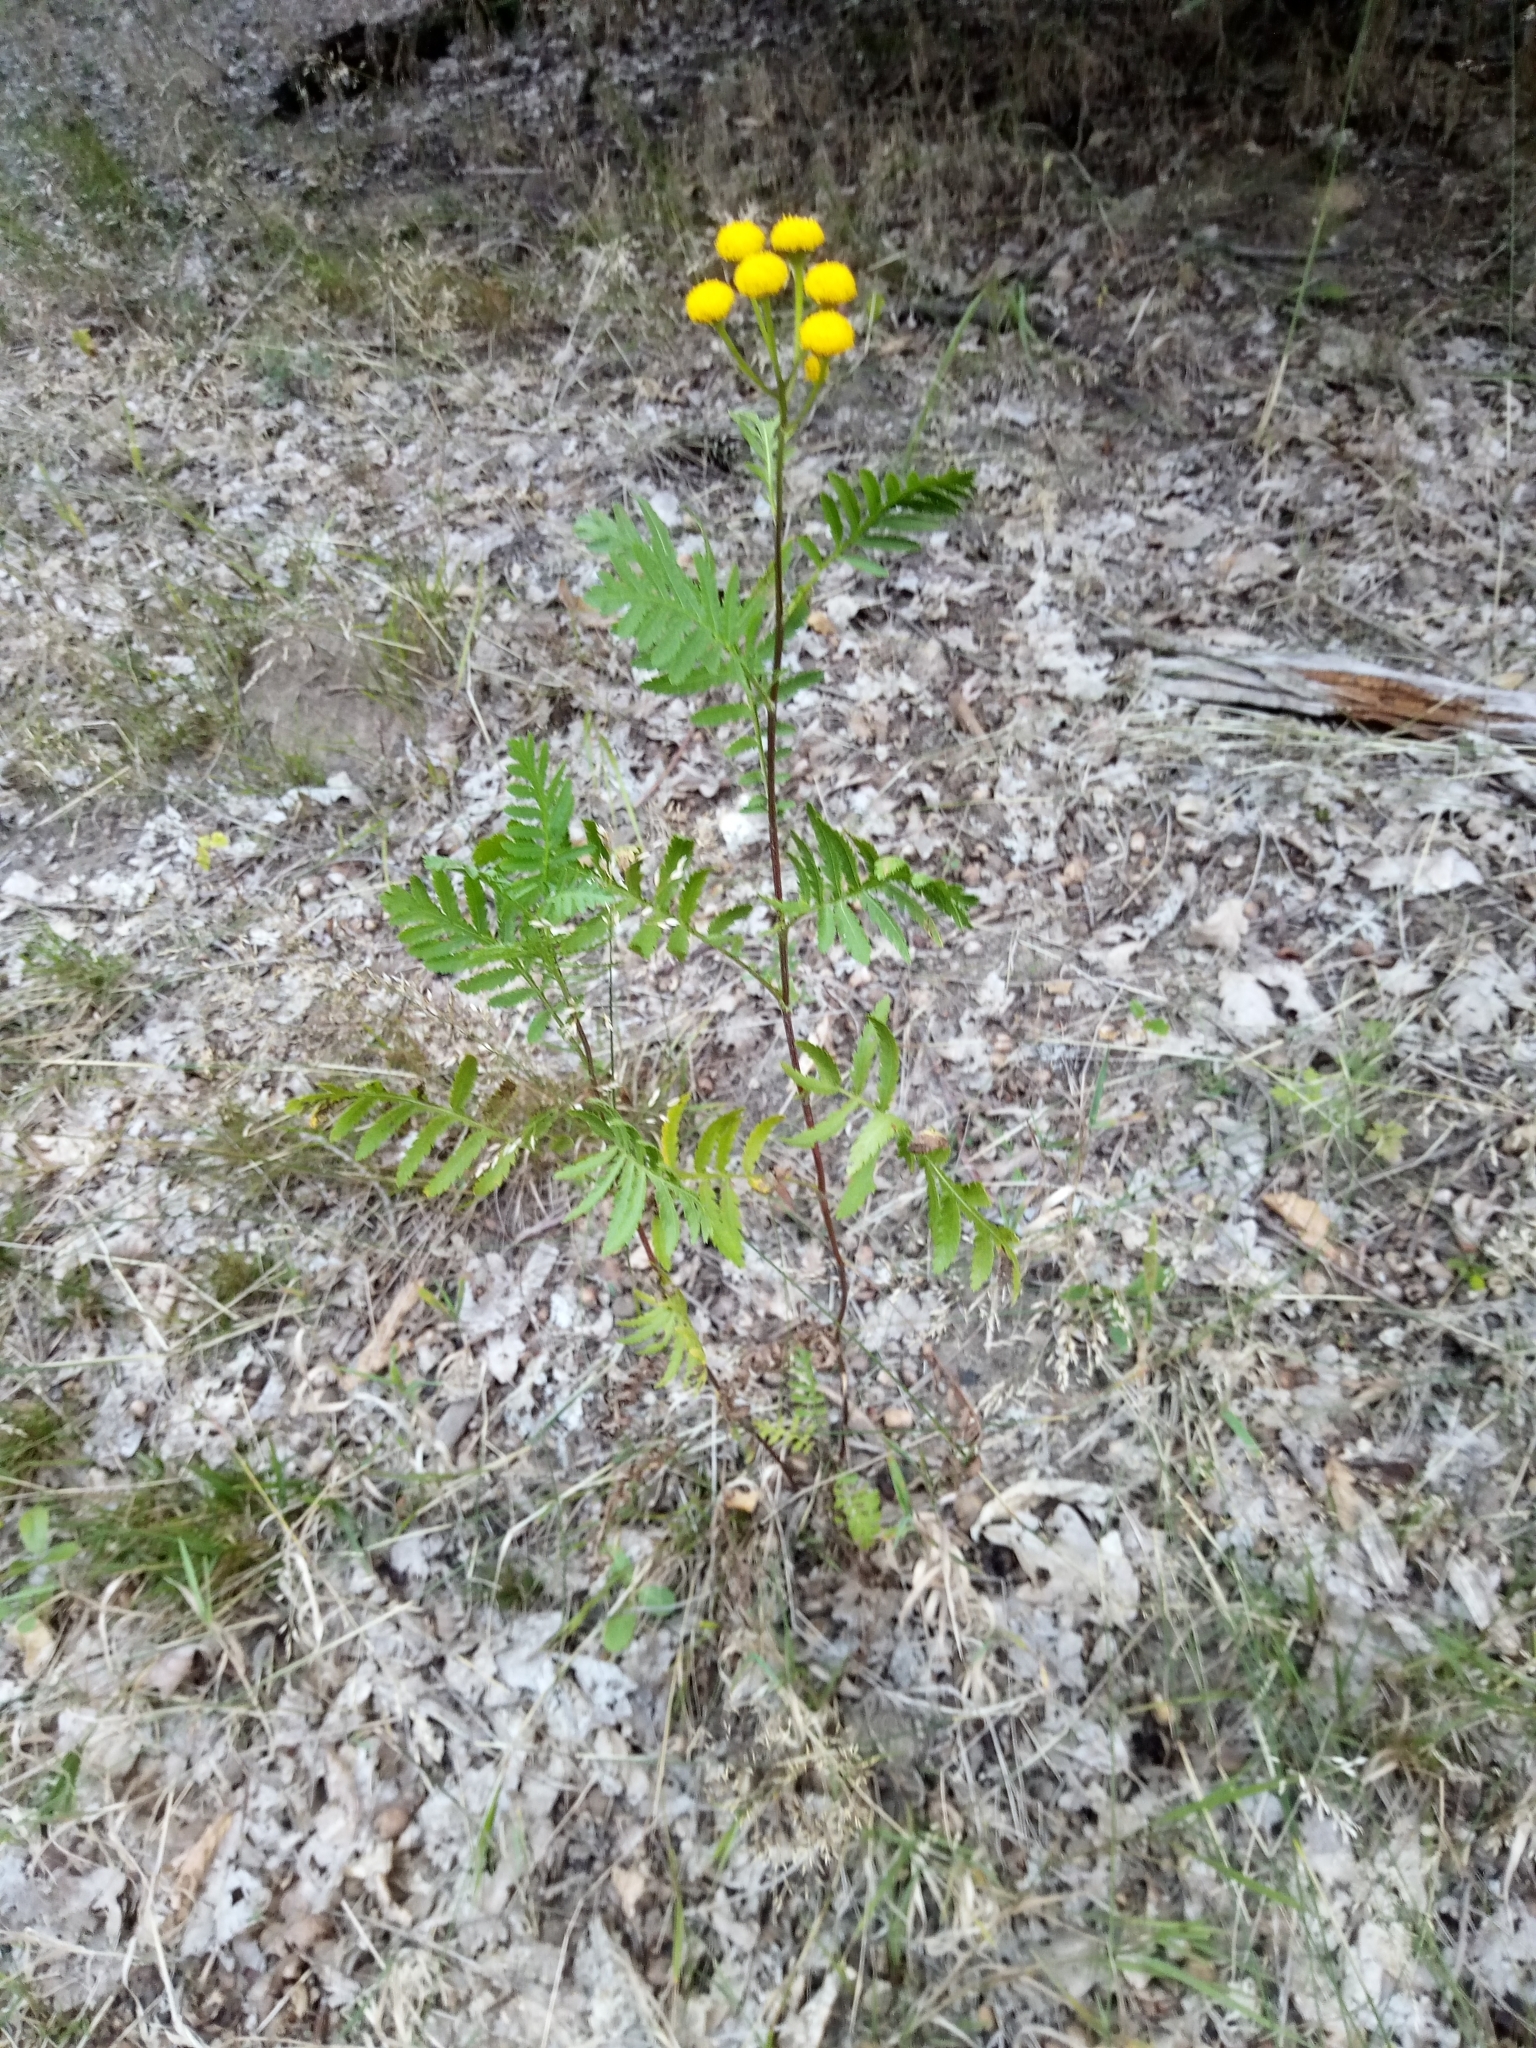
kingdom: Plantae
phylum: Tracheophyta
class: Magnoliopsida
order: Asterales
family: Asteraceae
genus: Tanacetum
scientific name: Tanacetum vulgare
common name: Common tansy
